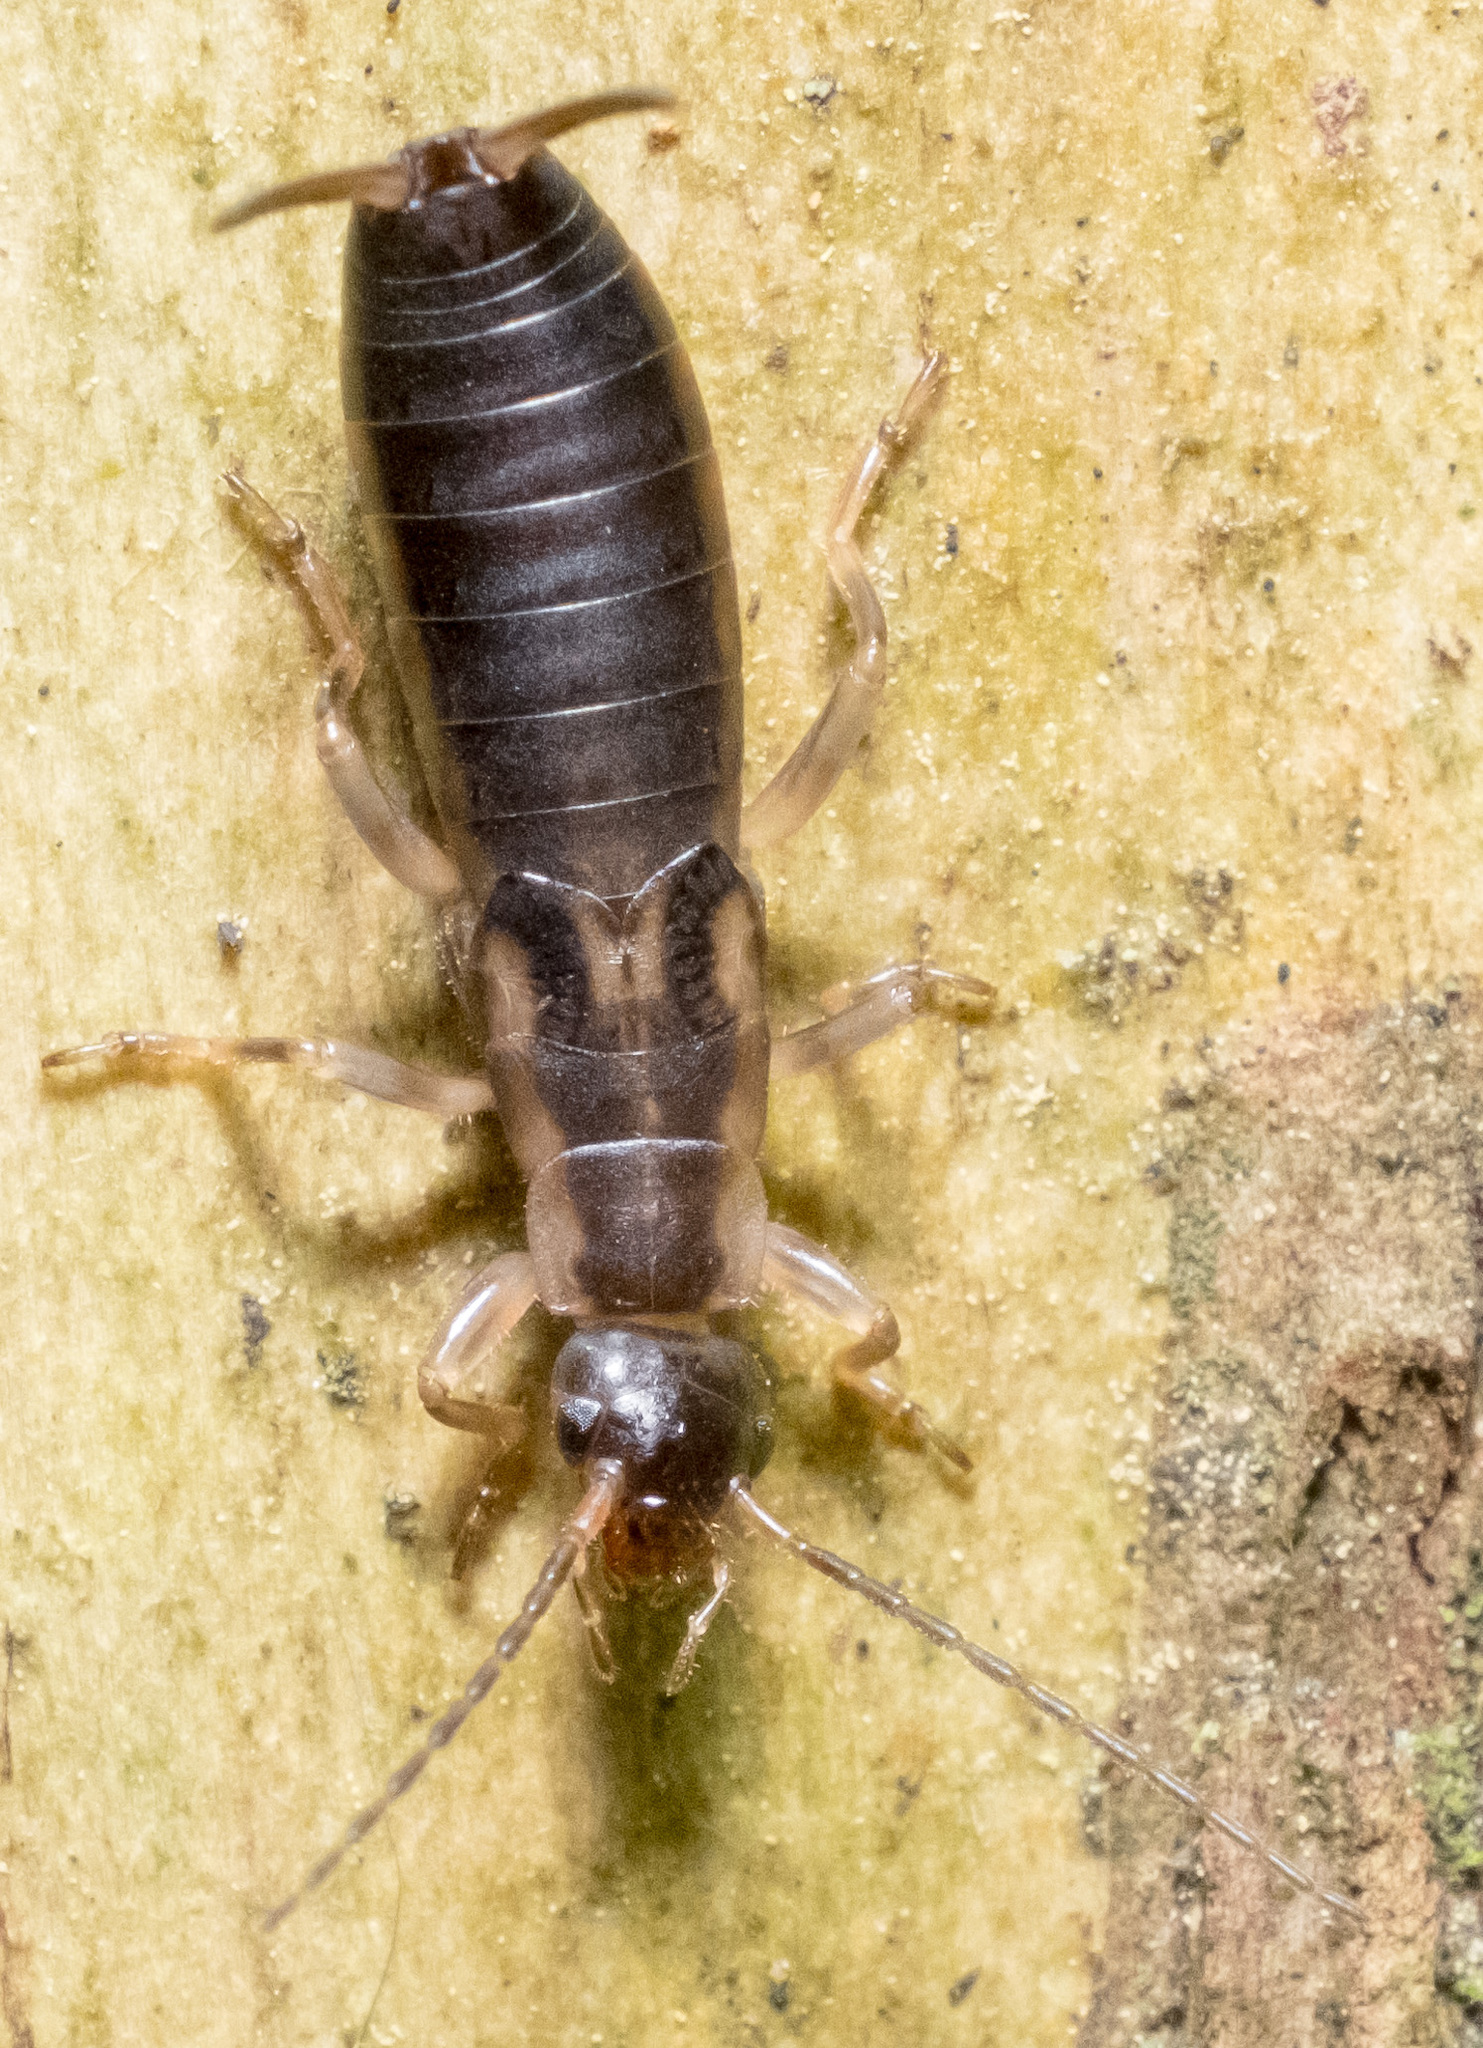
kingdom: Animalia
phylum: Arthropoda
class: Insecta
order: Dermaptera
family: Forficulidae
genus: Forficula
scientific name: Forficula
